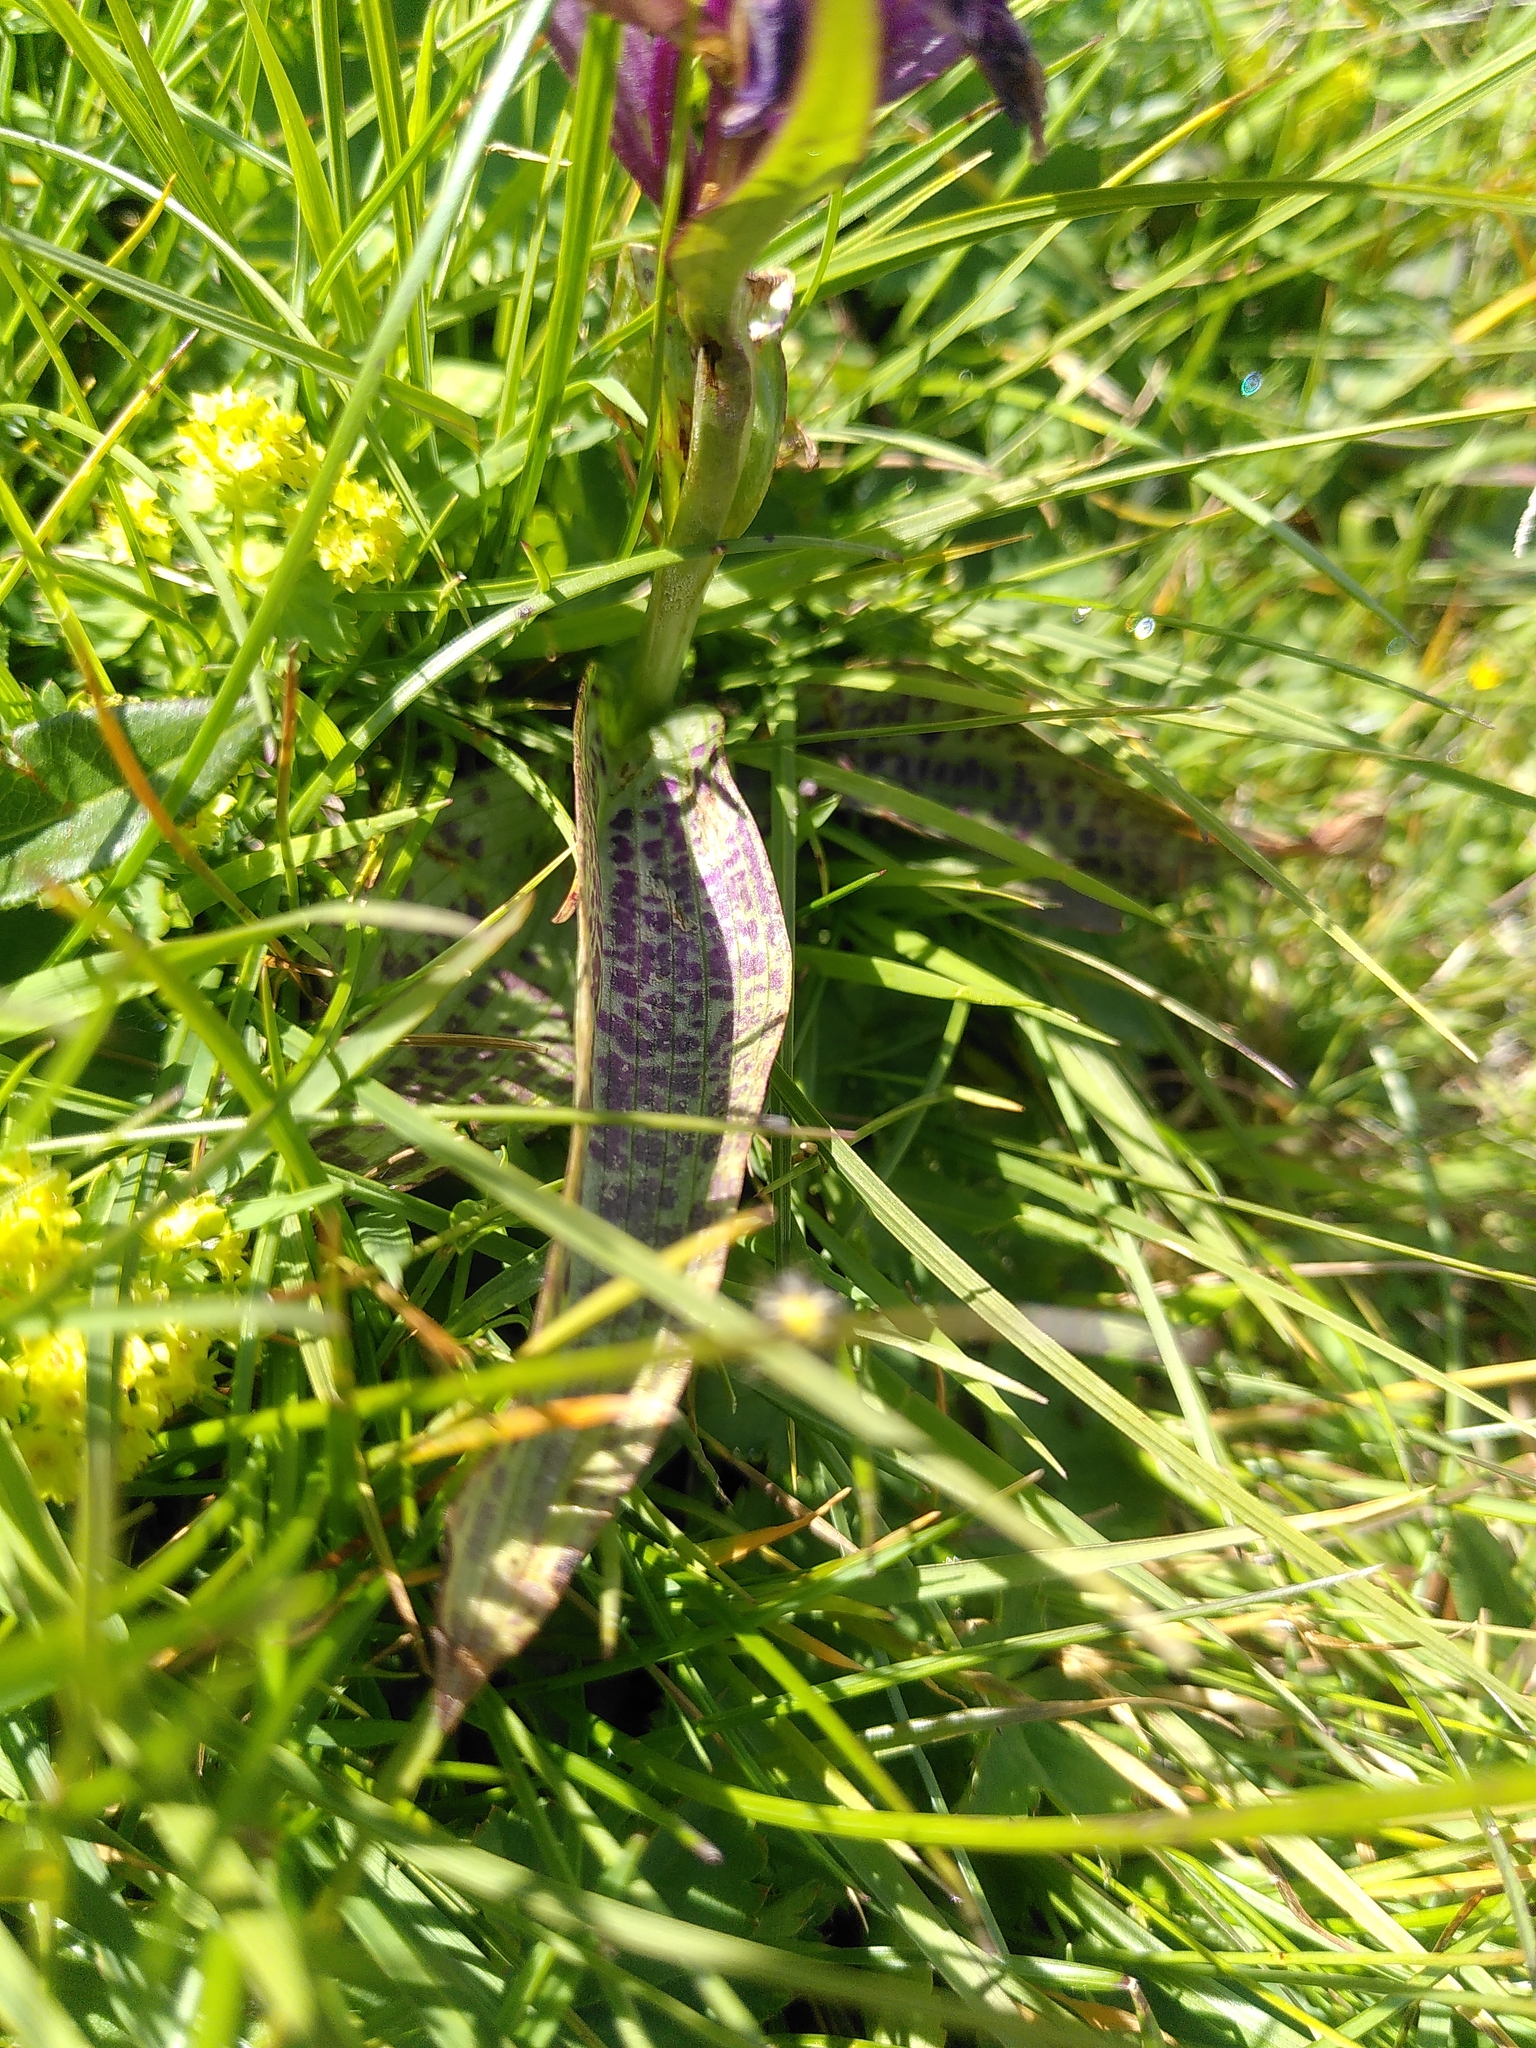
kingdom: Plantae
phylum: Tracheophyta
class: Liliopsida
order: Asparagales
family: Orchidaceae
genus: Dactylorhiza
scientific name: Dactylorhiza majalis
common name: Marsh orchid
